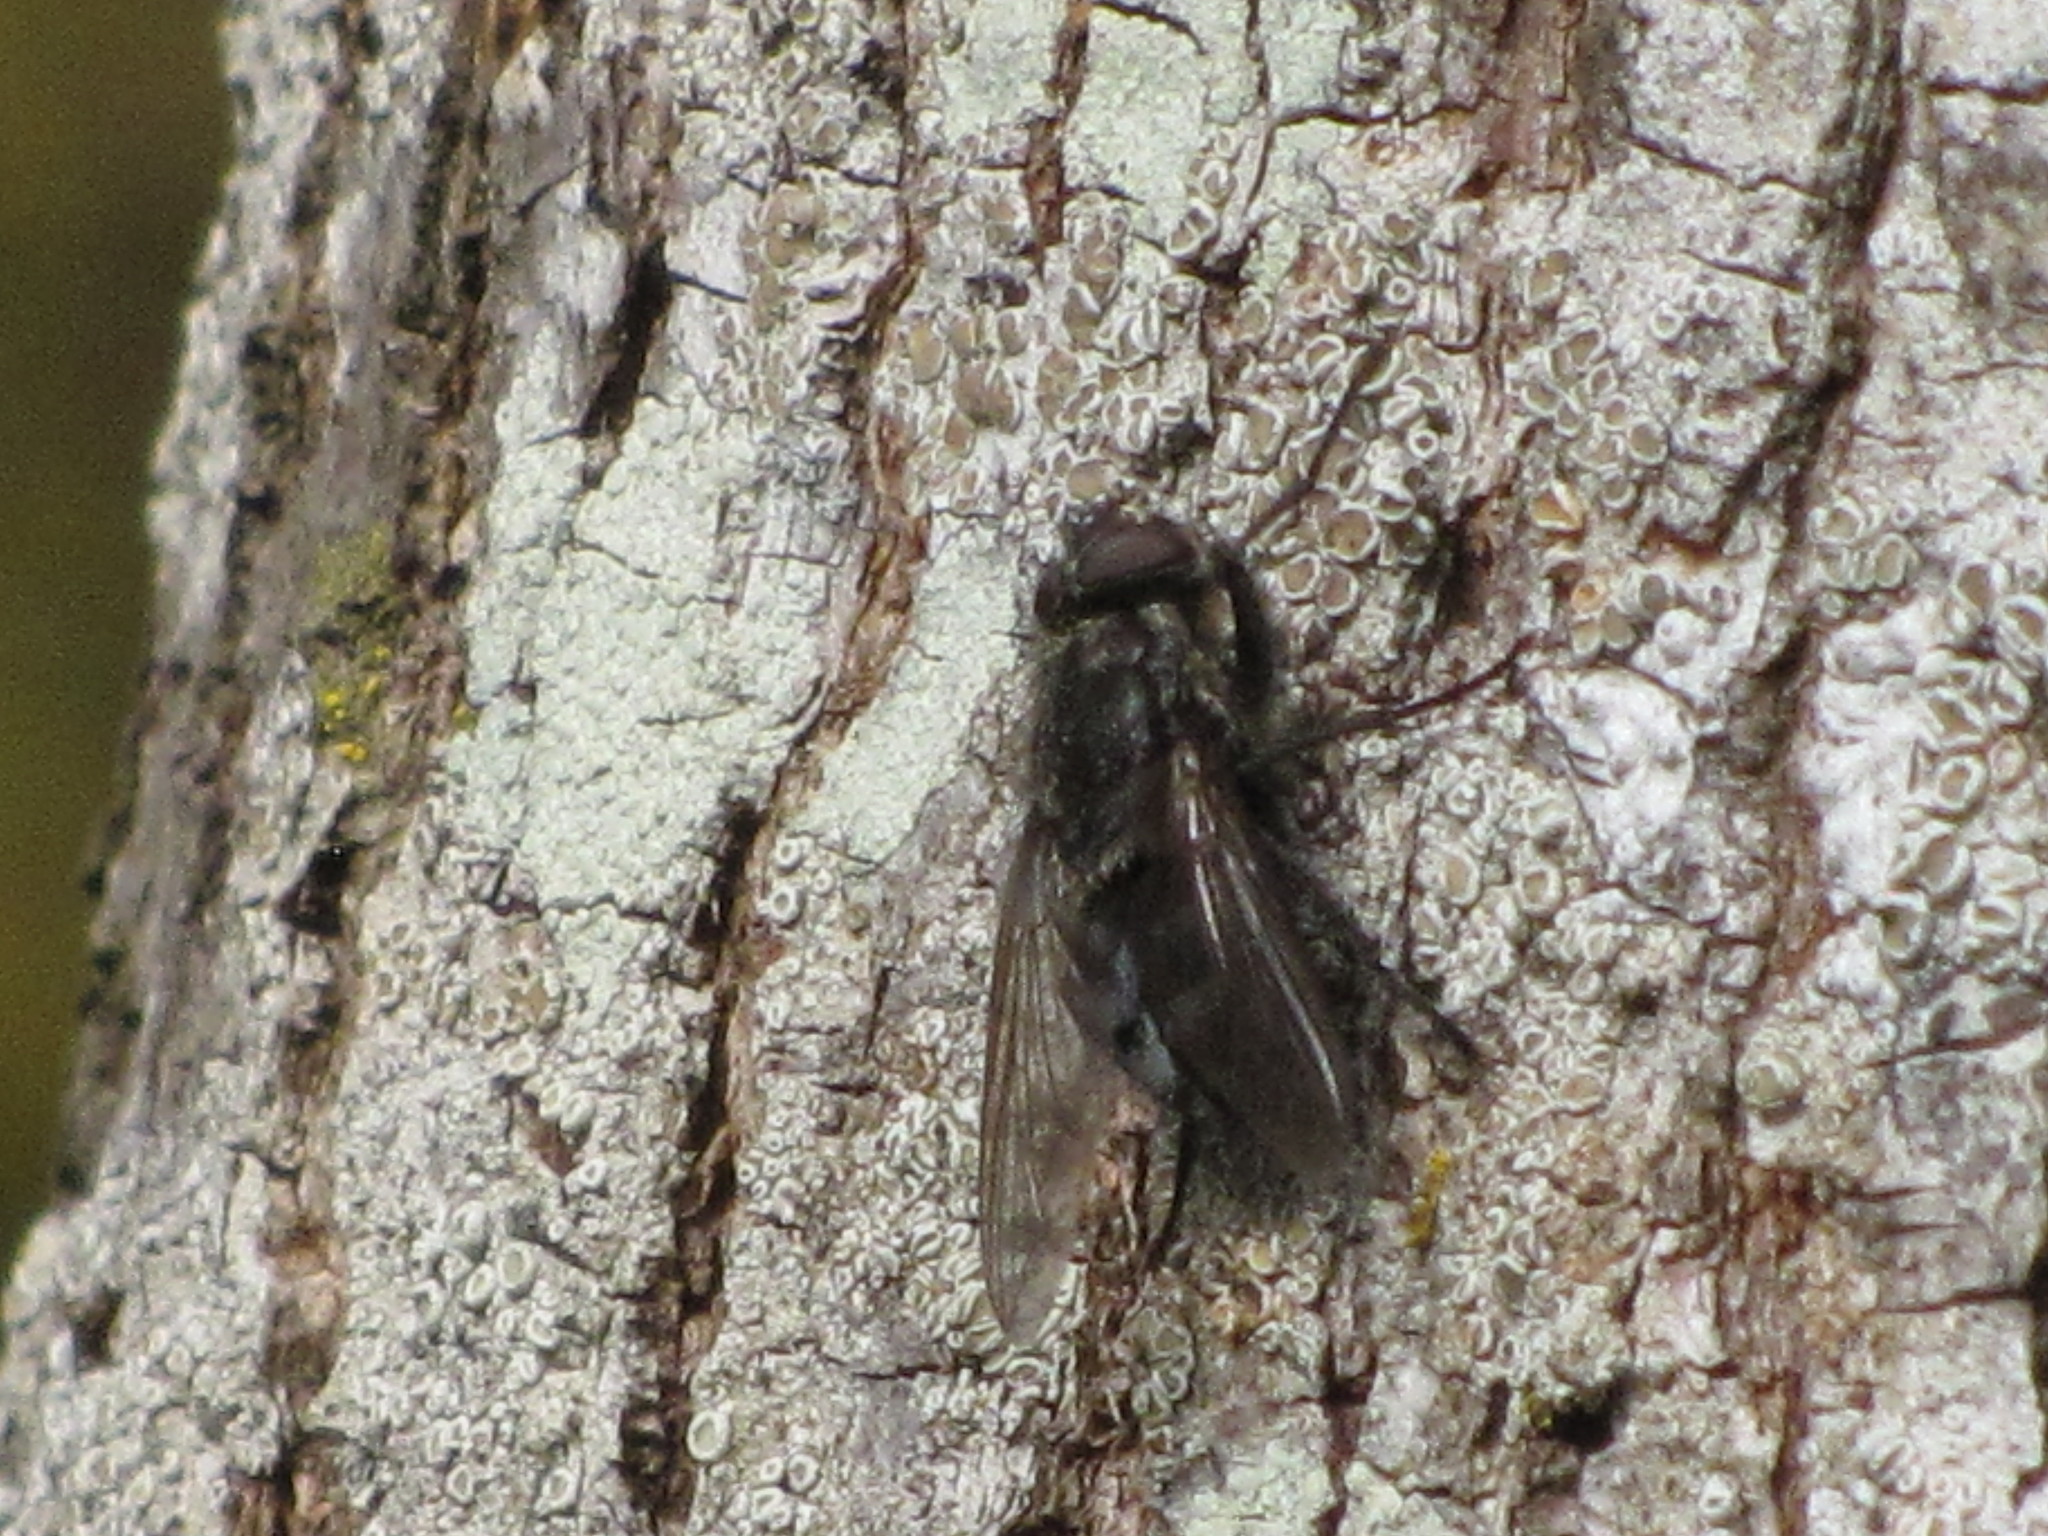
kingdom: Animalia
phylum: Arthropoda
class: Insecta
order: Diptera
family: Polleniidae
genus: Pollenia
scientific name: Pollenia vagabunda
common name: Vagabund cluster fly
